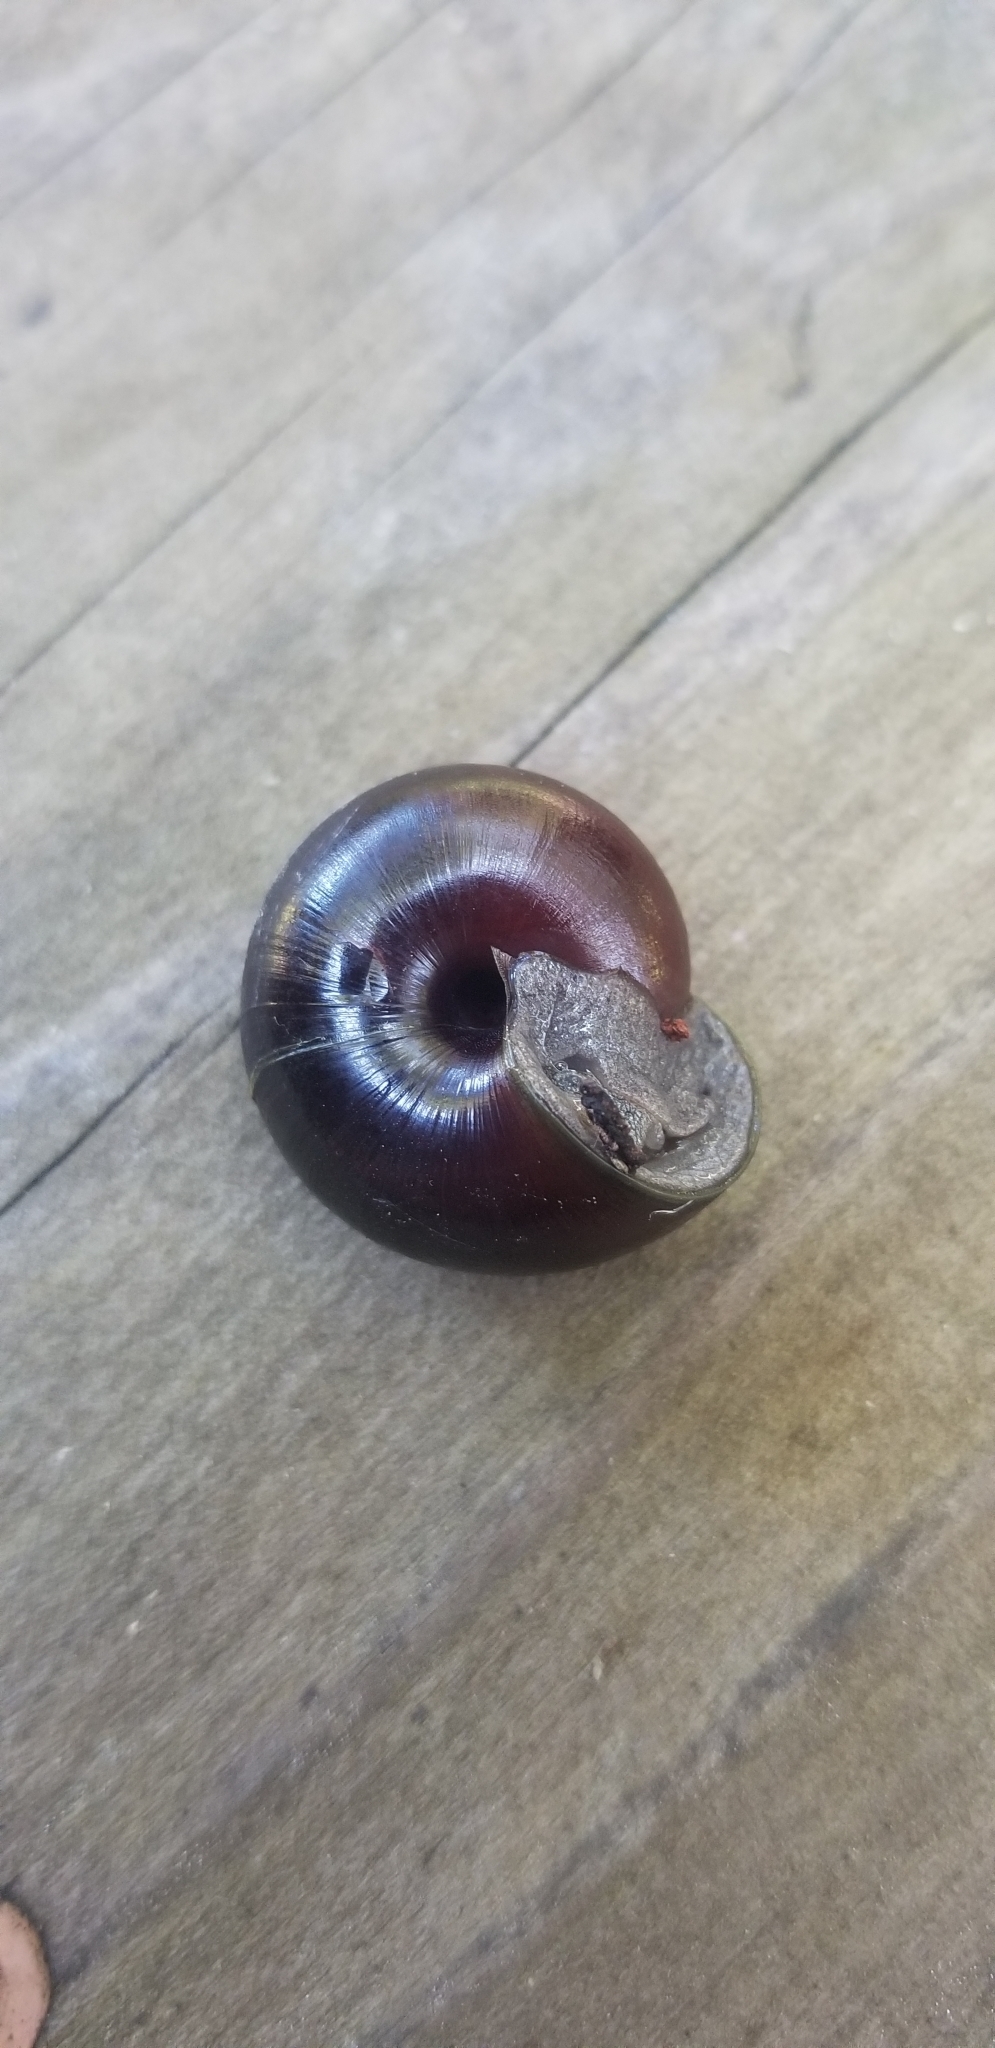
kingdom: Animalia
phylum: Mollusca
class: Gastropoda
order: Stylommatophora
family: Xanthonychidae
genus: Helminthoglypta
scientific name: Helminthoglypta sequoicola
